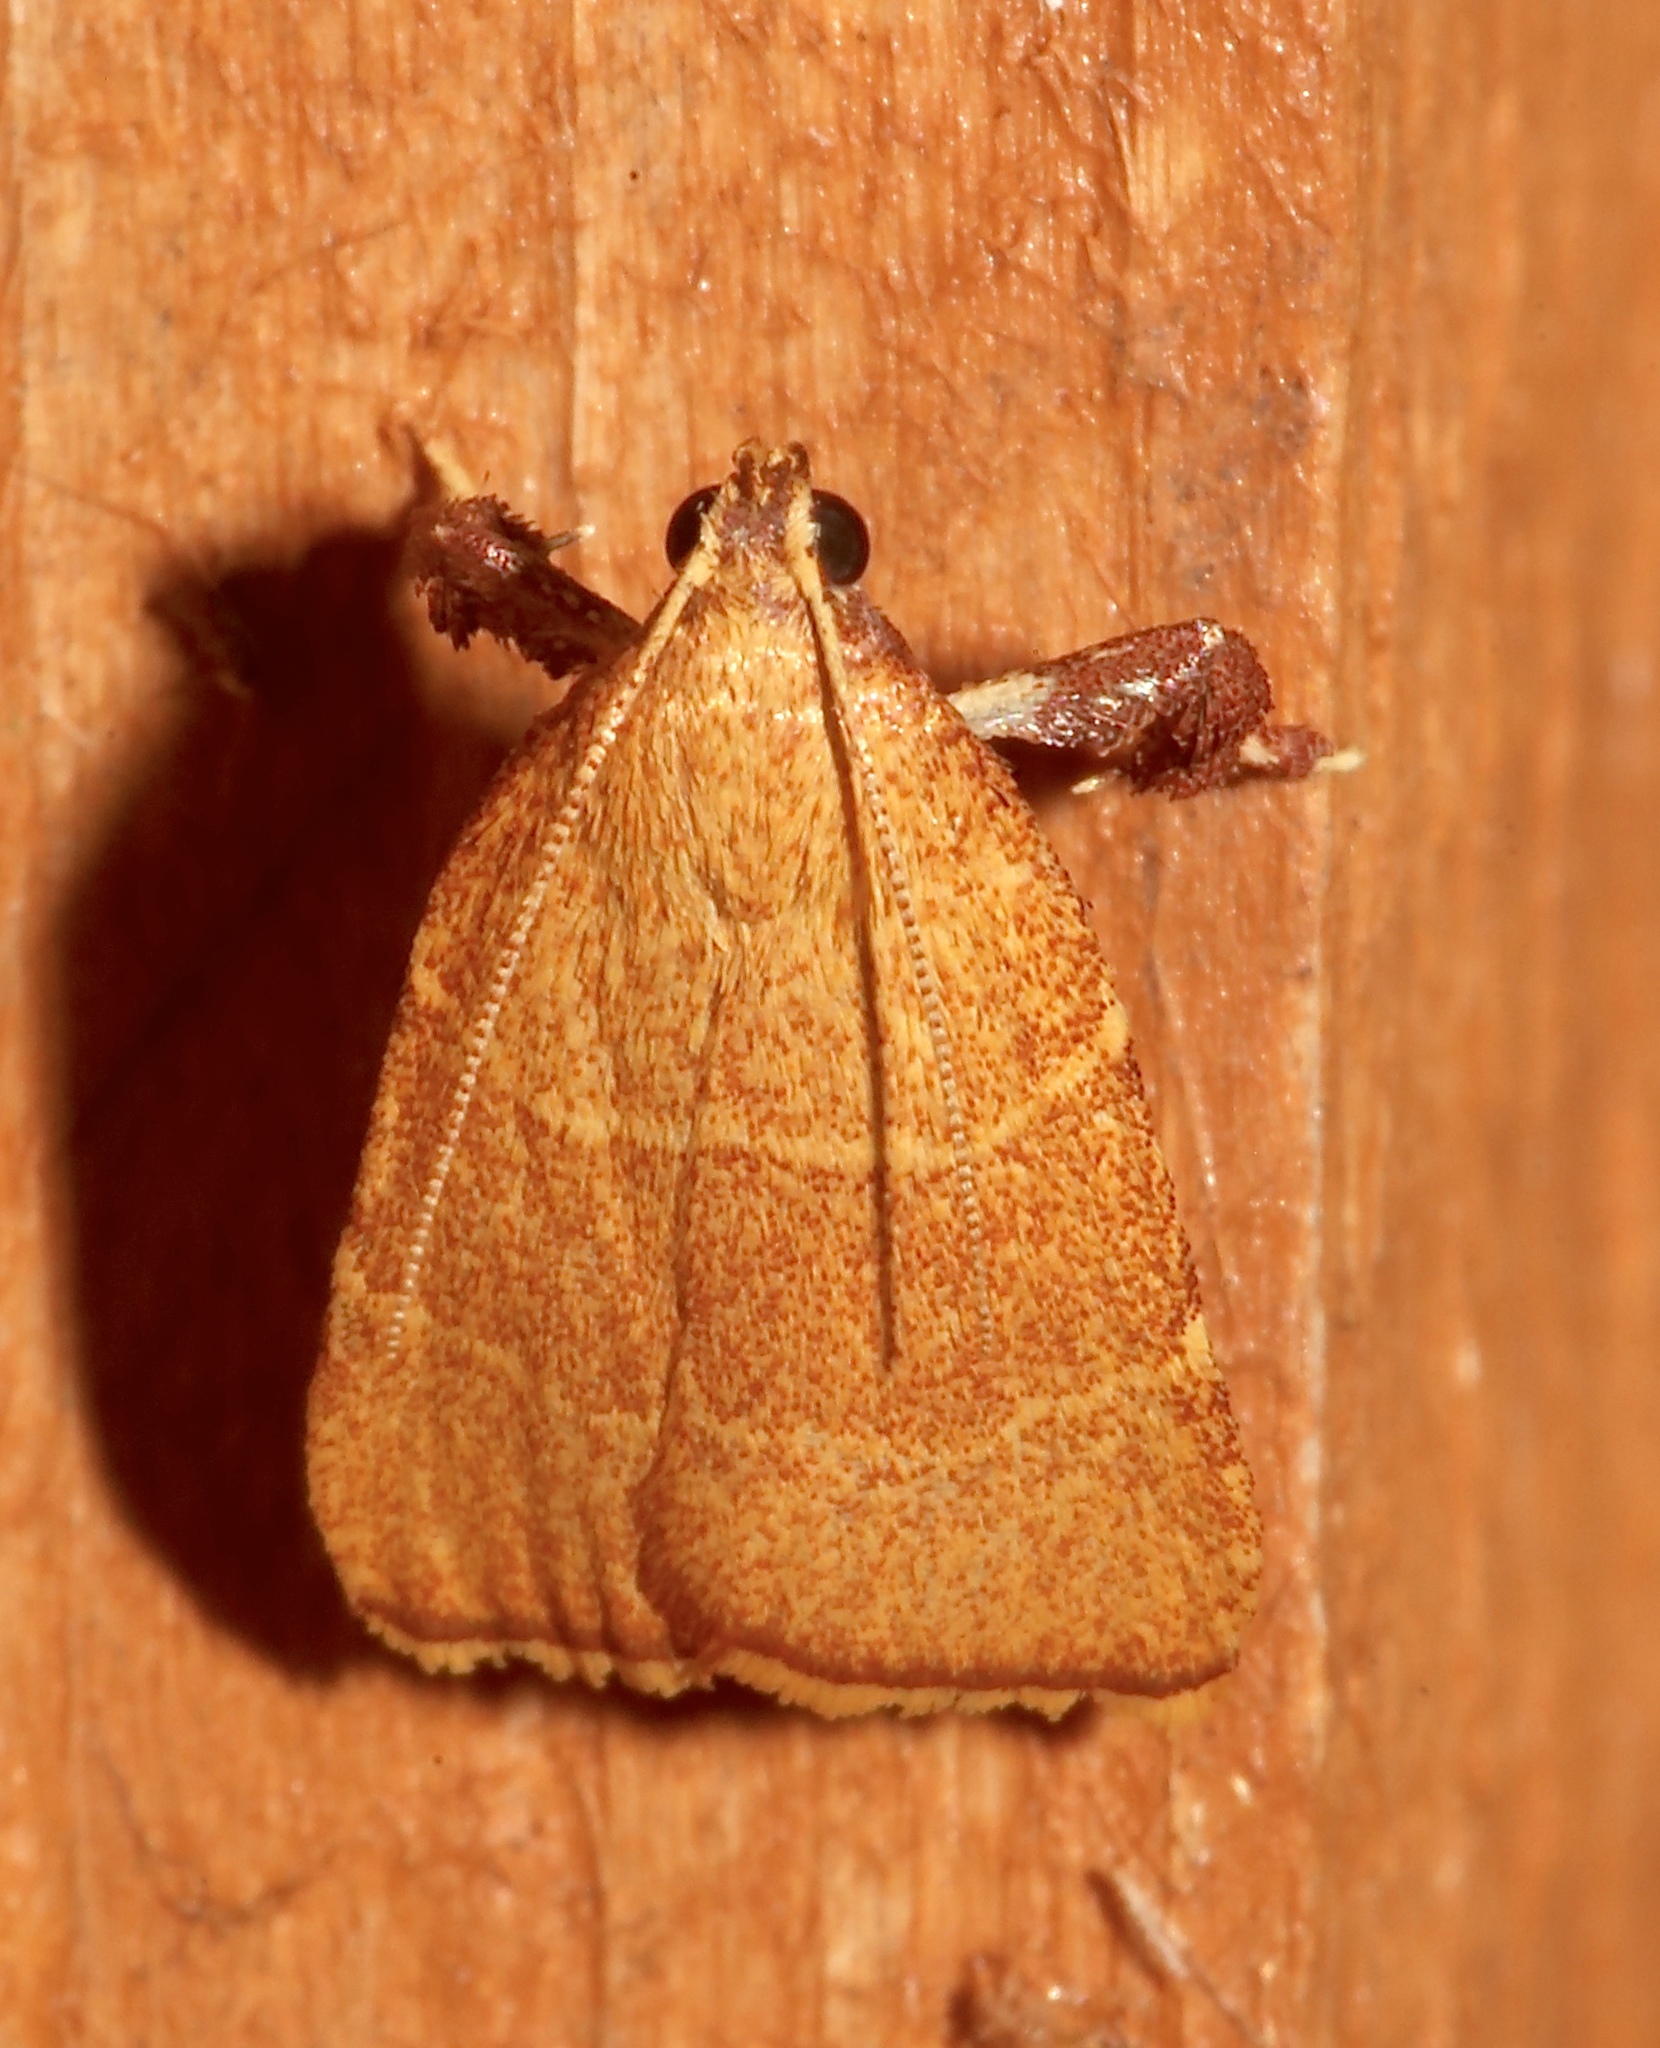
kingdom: Animalia
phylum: Arthropoda
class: Insecta
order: Lepidoptera
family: Pyralidae
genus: Parachma
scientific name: Parachma ochracealis
